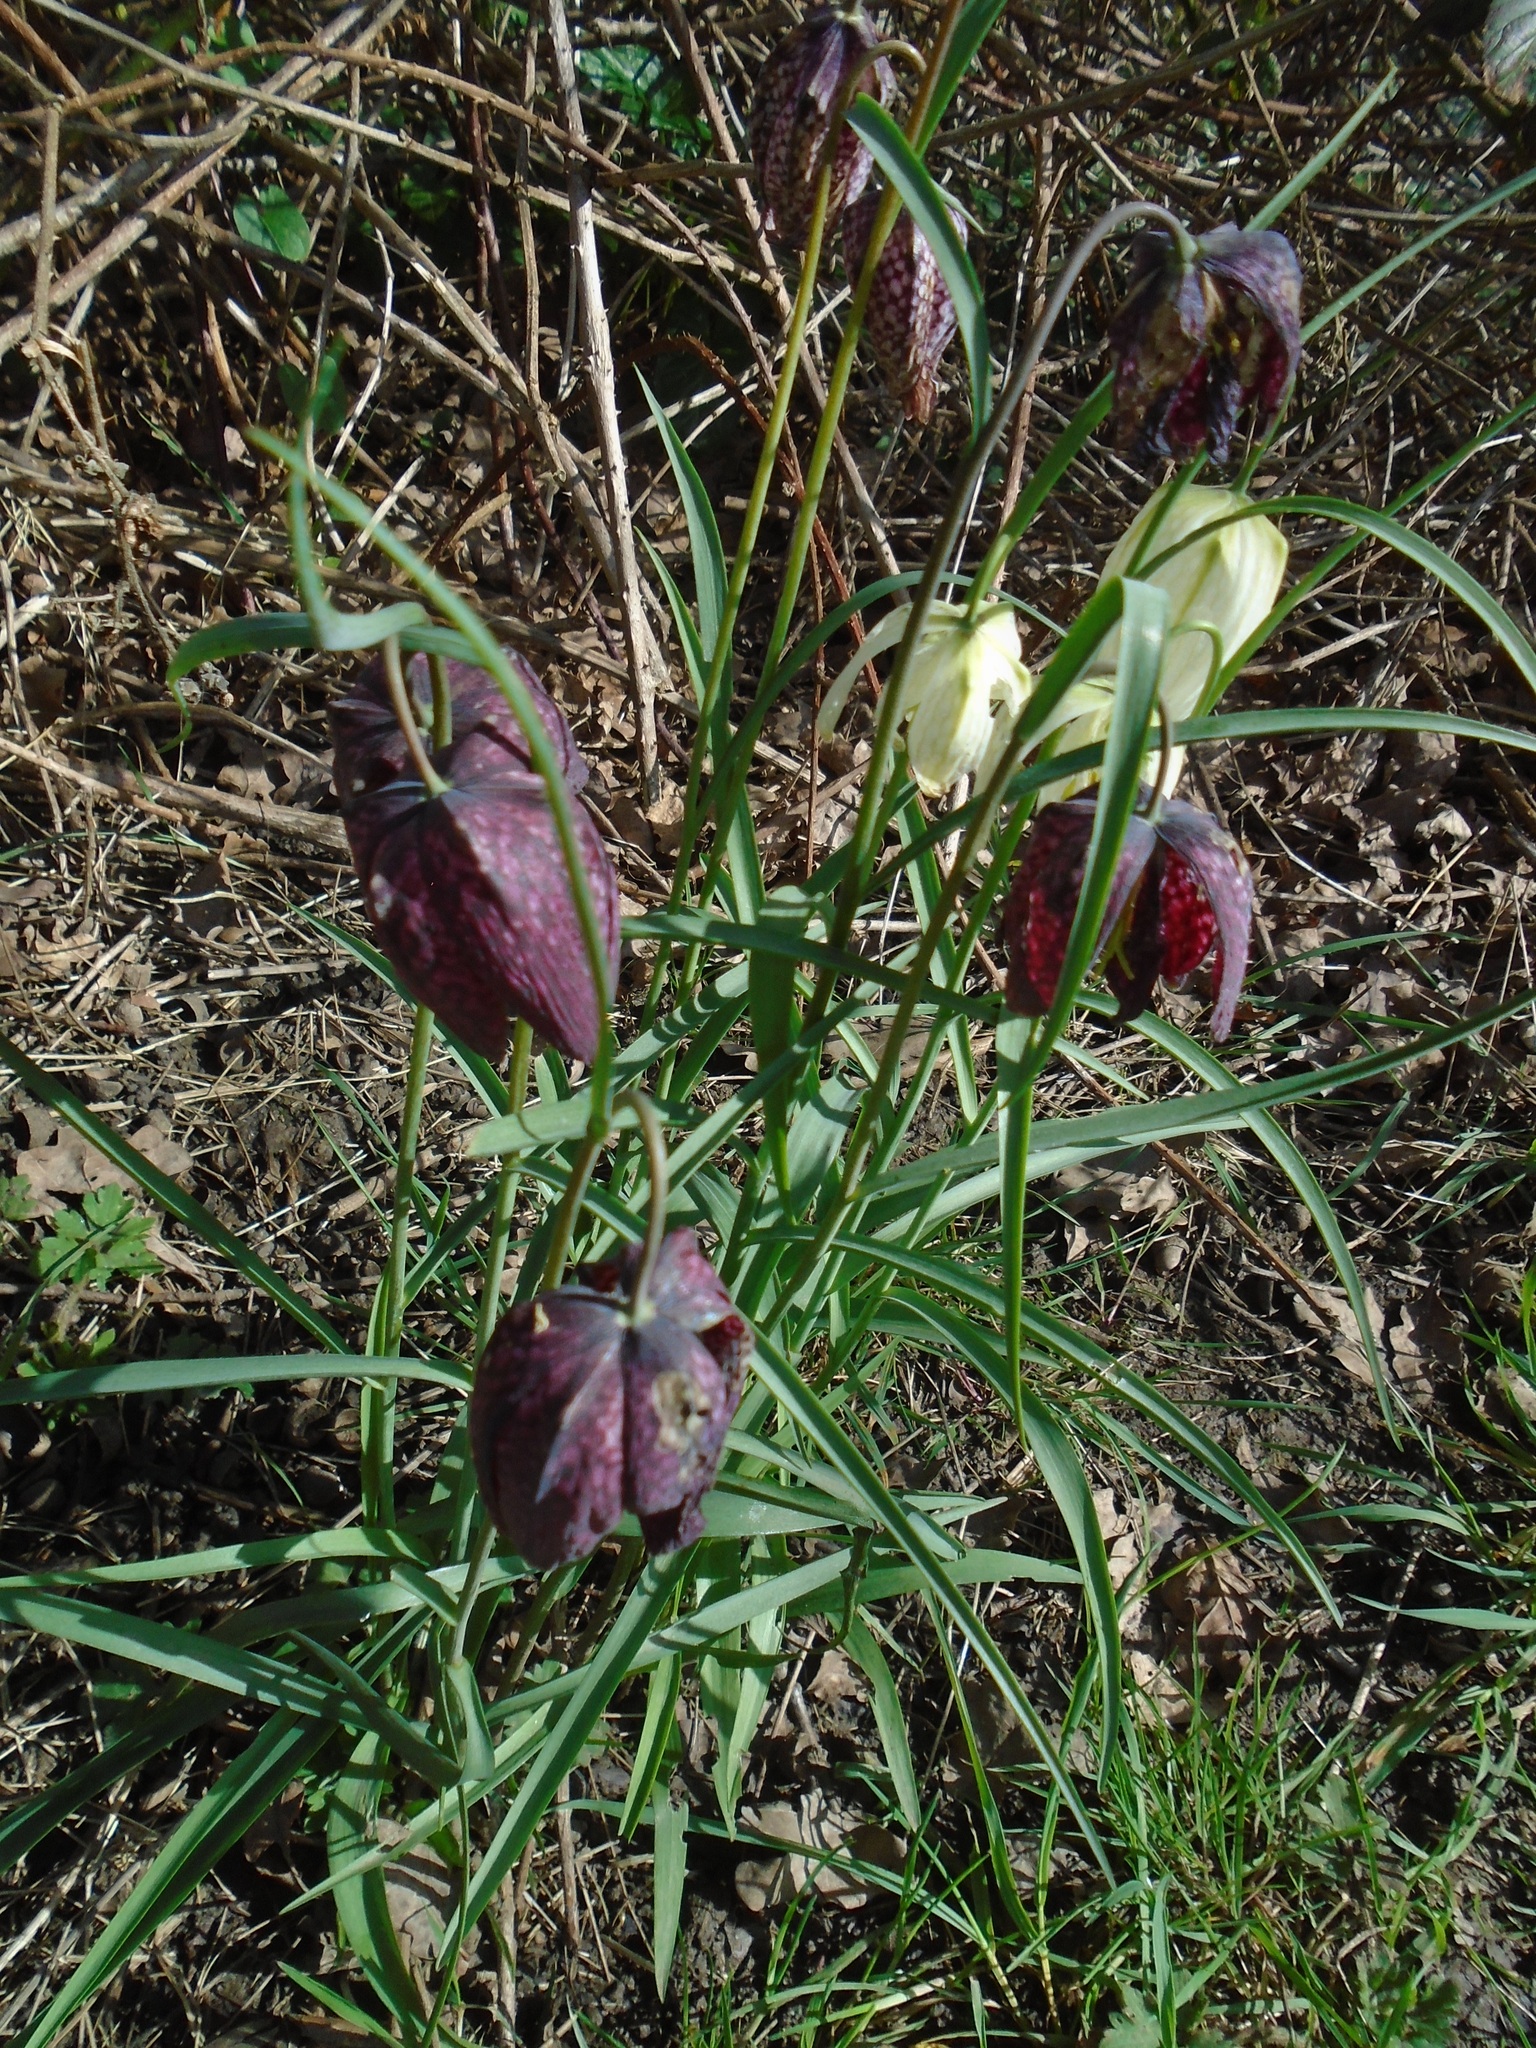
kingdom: Plantae
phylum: Tracheophyta
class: Liliopsida
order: Liliales
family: Liliaceae
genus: Fritillaria
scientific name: Fritillaria meleagris
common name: Fritillary
